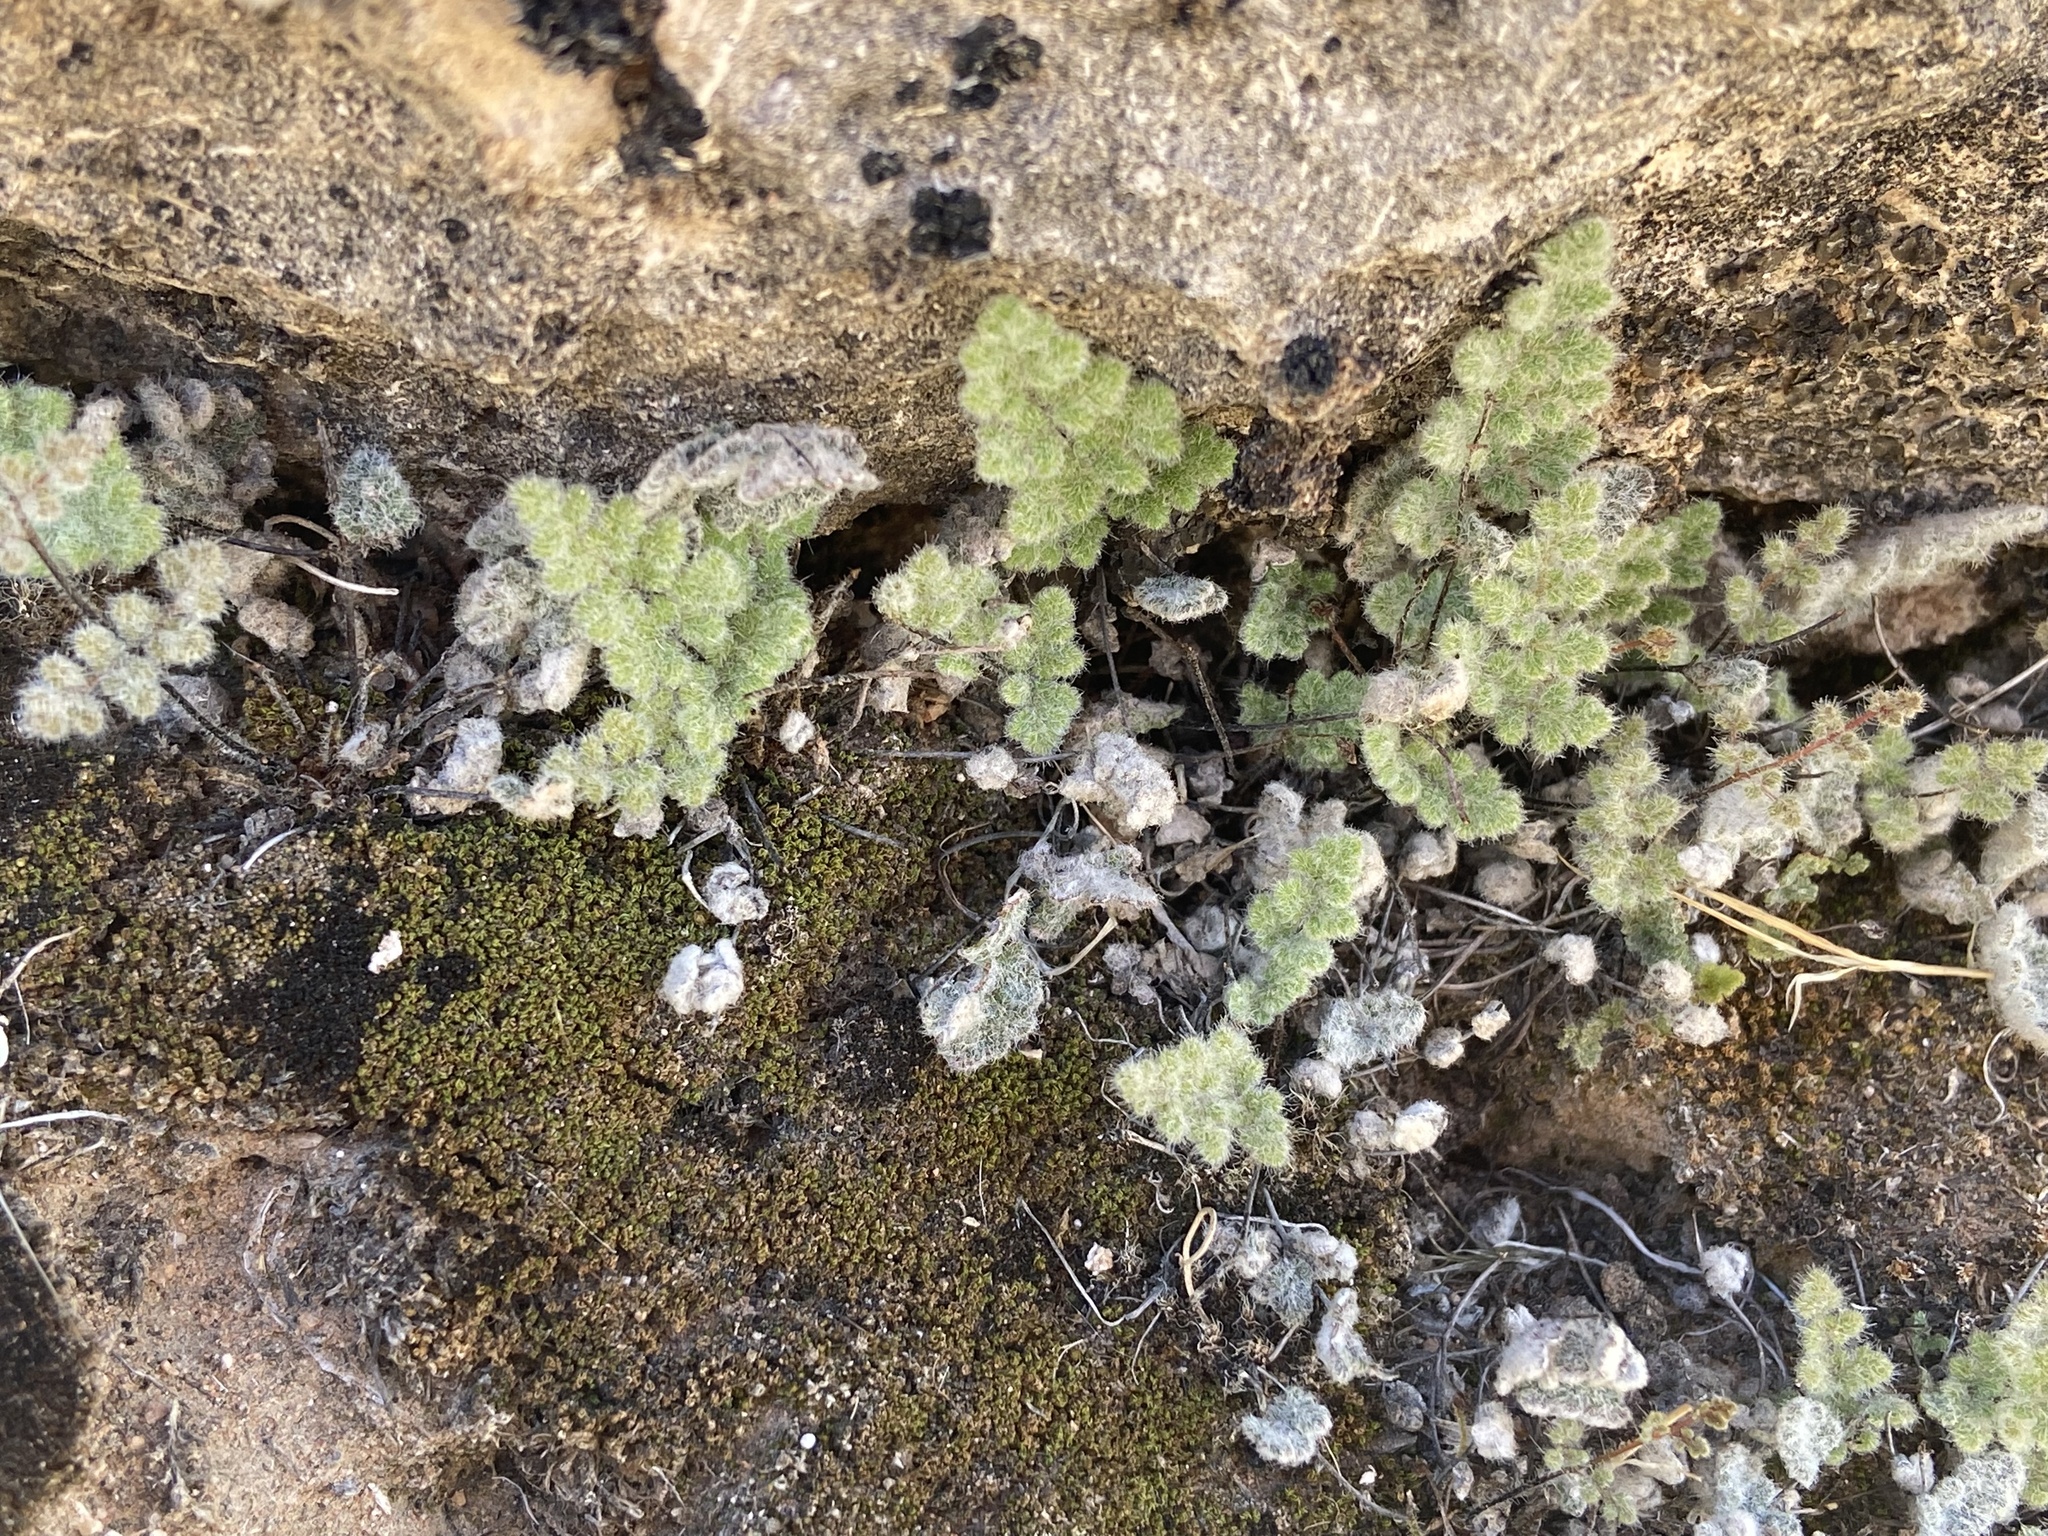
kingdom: Plantae
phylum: Tracheophyta
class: Polypodiopsida
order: Polypodiales
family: Pteridaceae
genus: Myriopteris
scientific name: Myriopteris parryi
